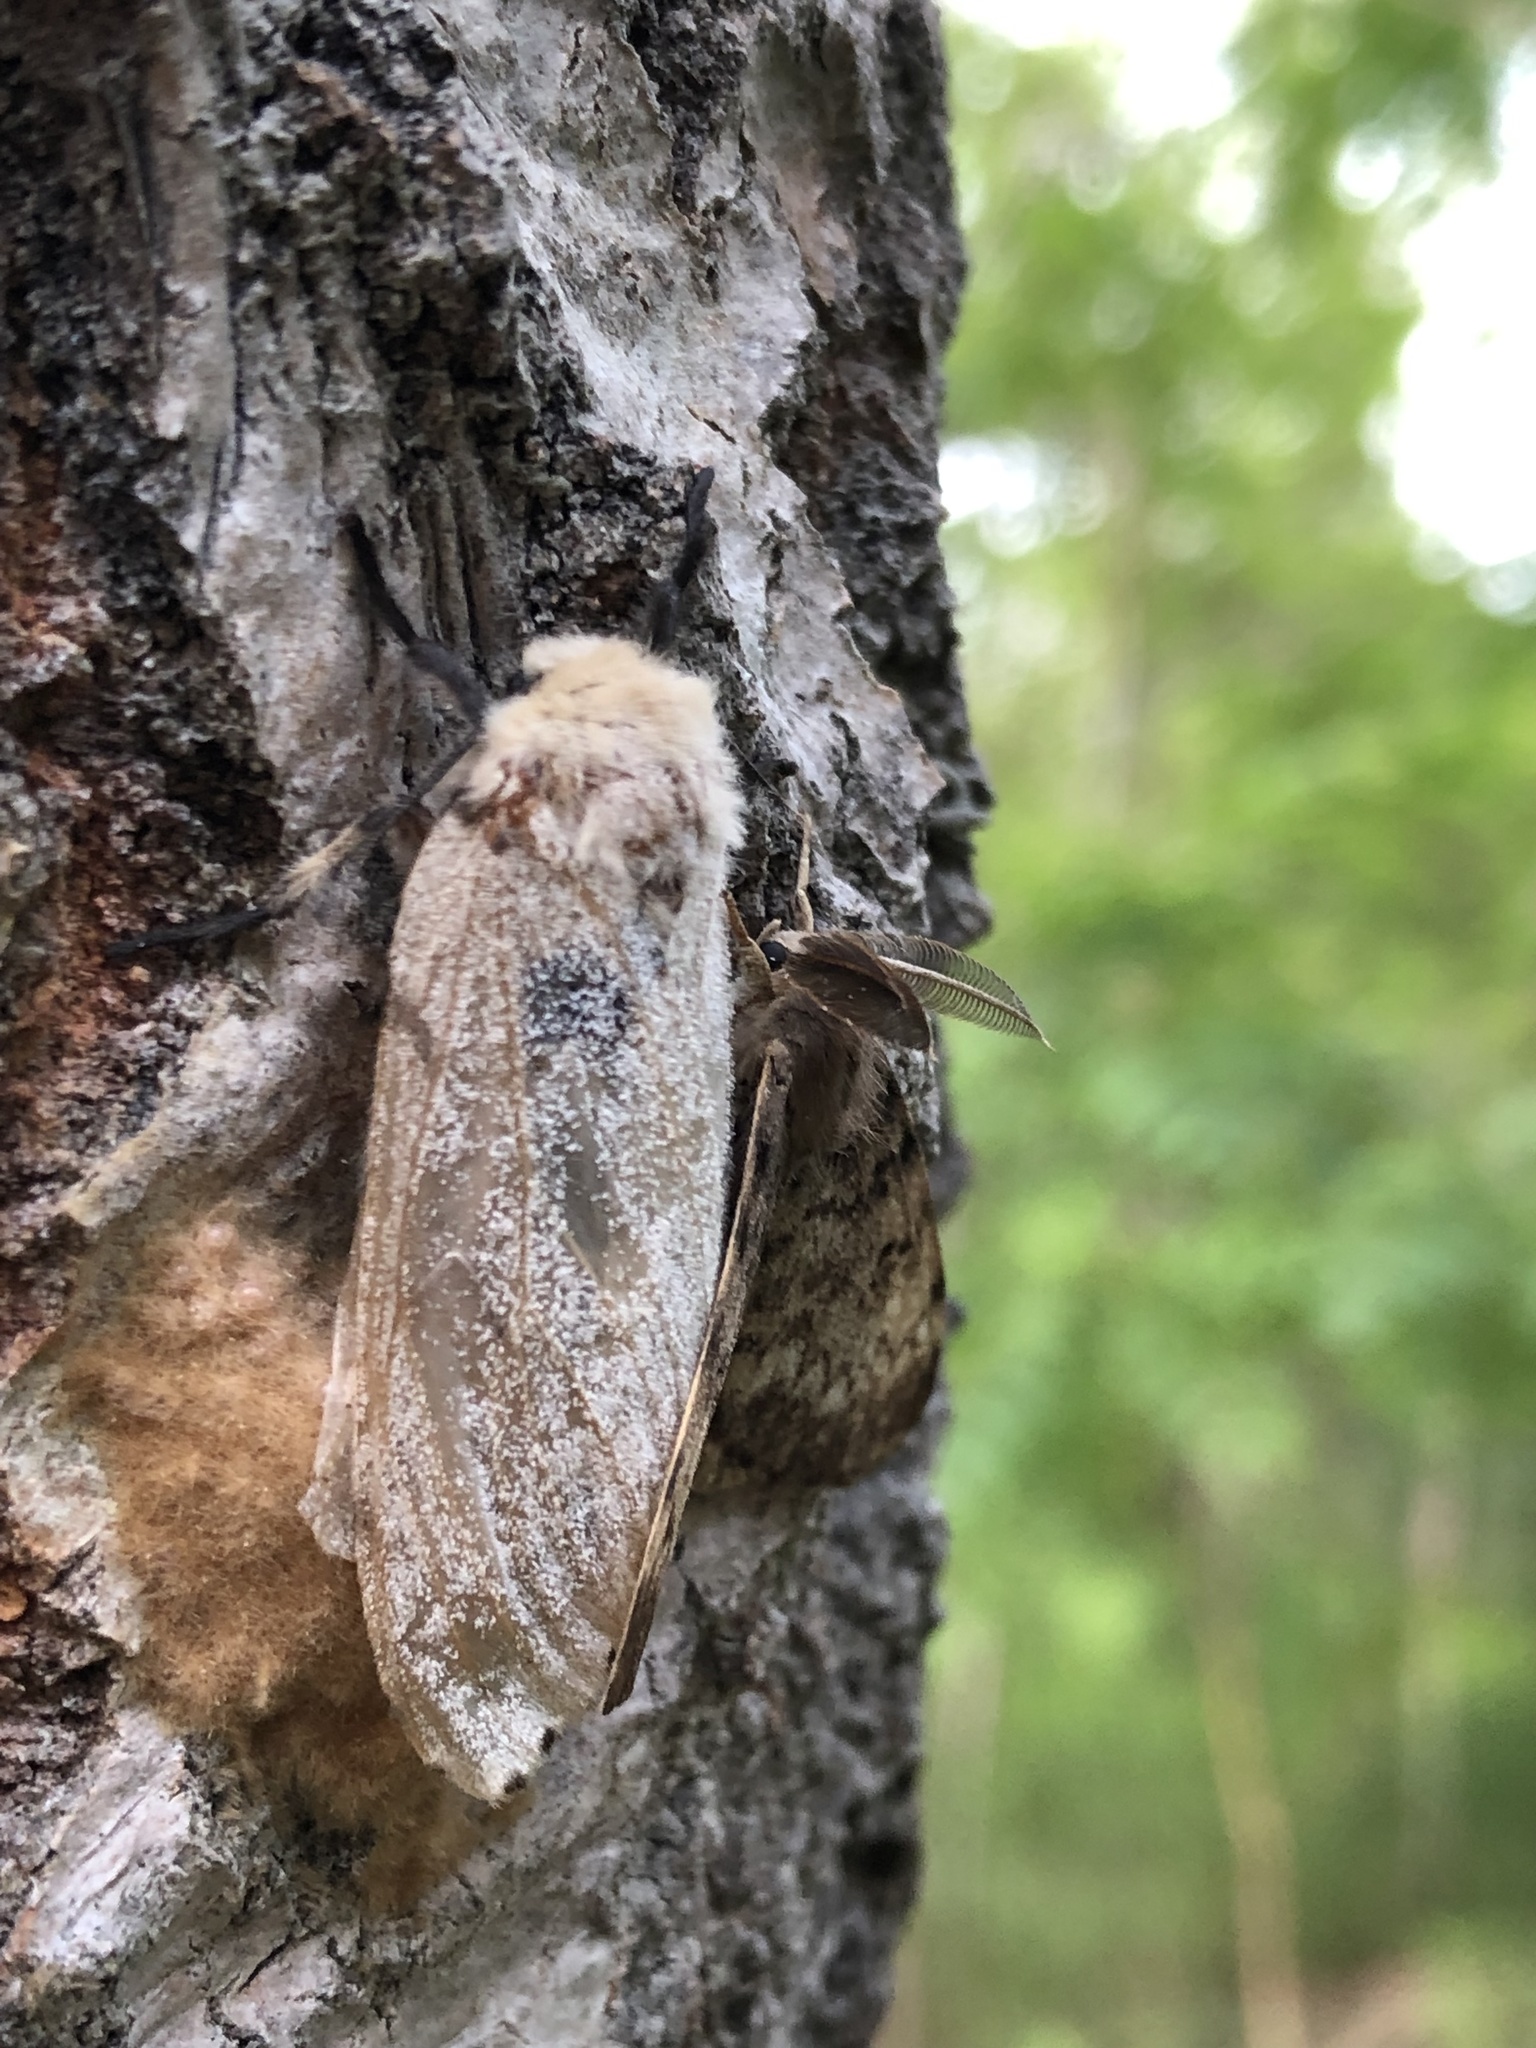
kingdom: Animalia
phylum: Arthropoda
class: Insecta
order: Lepidoptera
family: Erebidae
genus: Lymantria
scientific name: Lymantria dispar
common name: Gypsy moth
